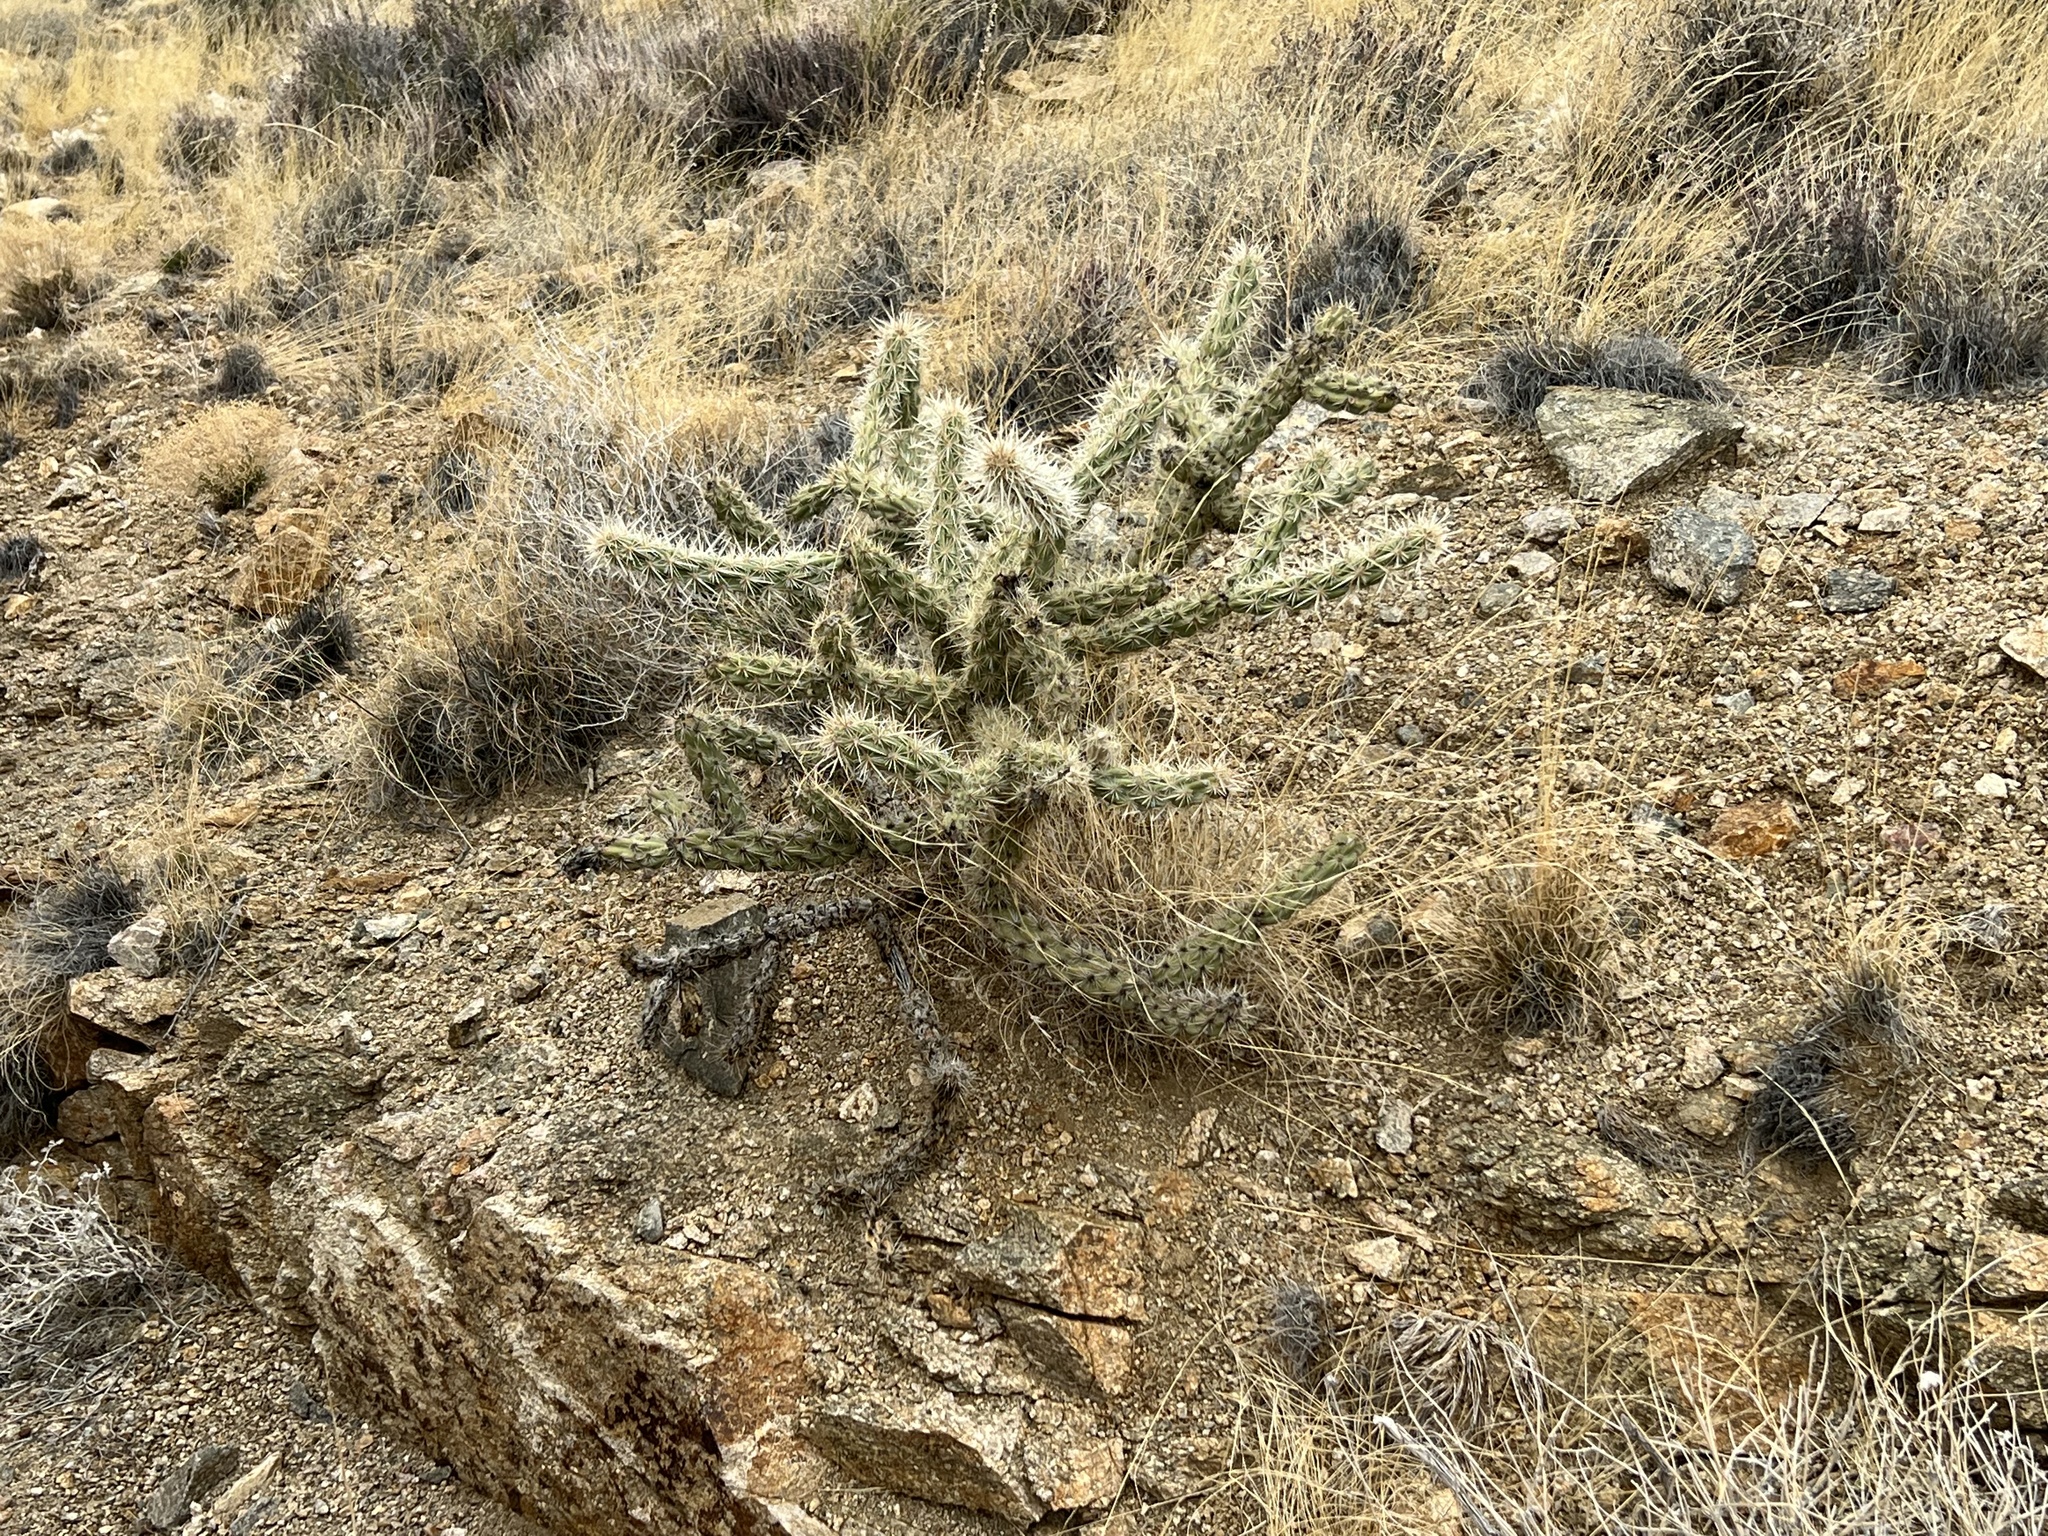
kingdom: Plantae
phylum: Tracheophyta
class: Magnoliopsida
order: Caryophyllales
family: Cactaceae
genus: Cylindropuntia
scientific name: Cylindropuntia acanthocarpa
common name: Buckhorn cholla
